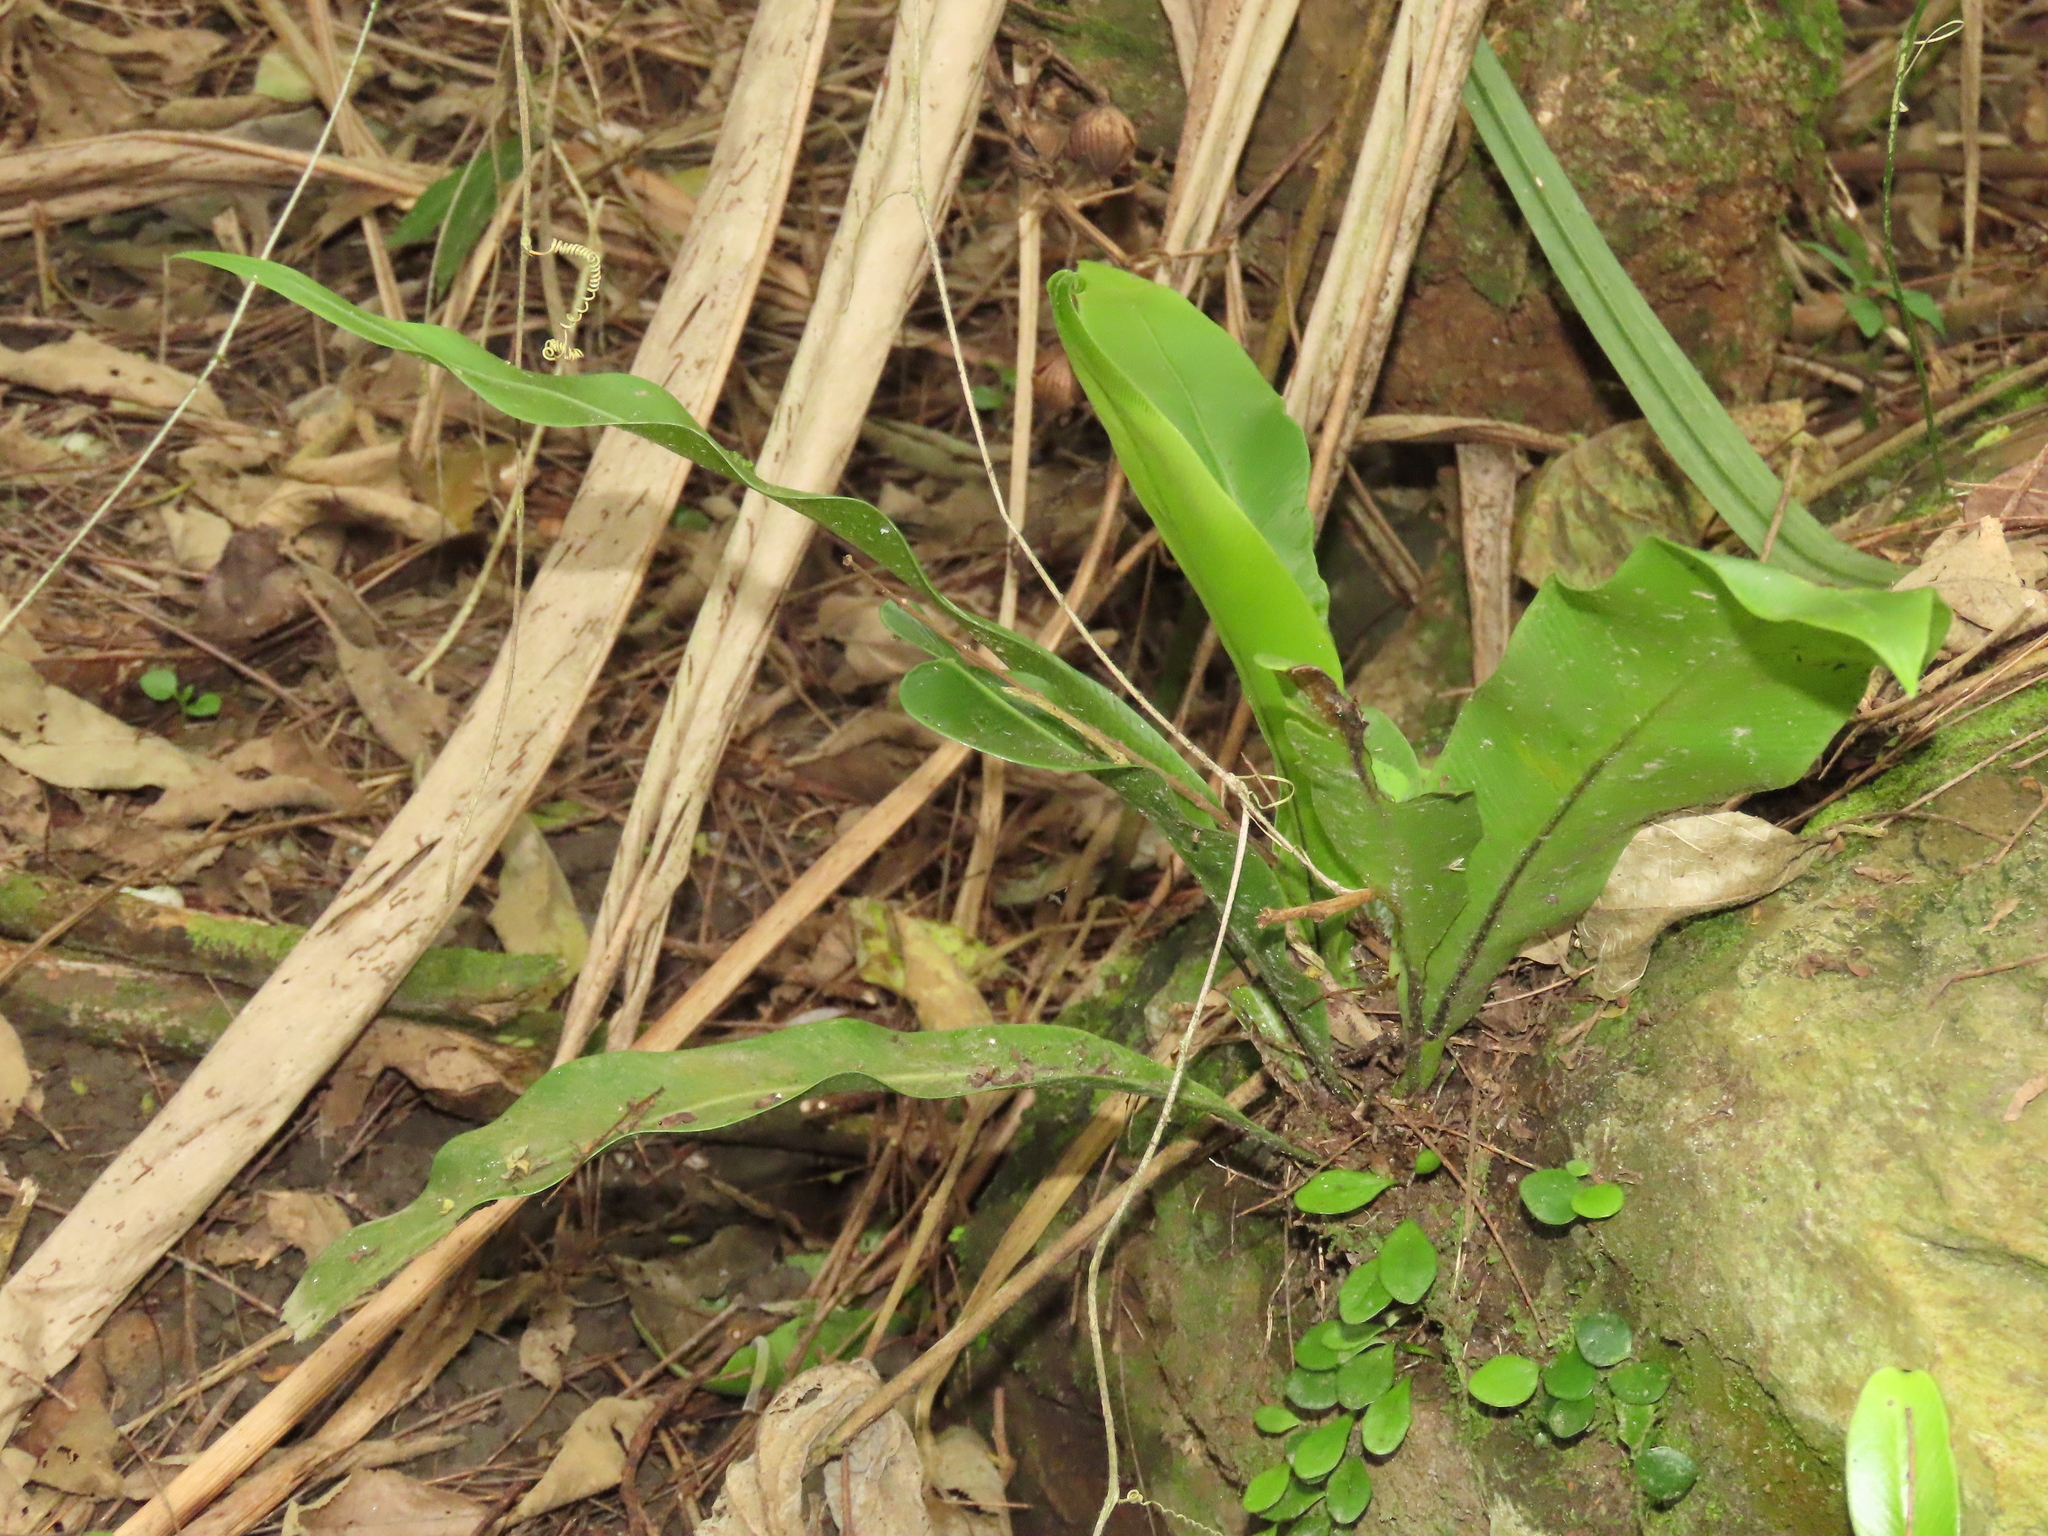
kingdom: Plantae
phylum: Tracheophyta
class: Polypodiopsida
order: Polypodiales
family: Aspleniaceae
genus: Asplenium
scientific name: Asplenium setoi
